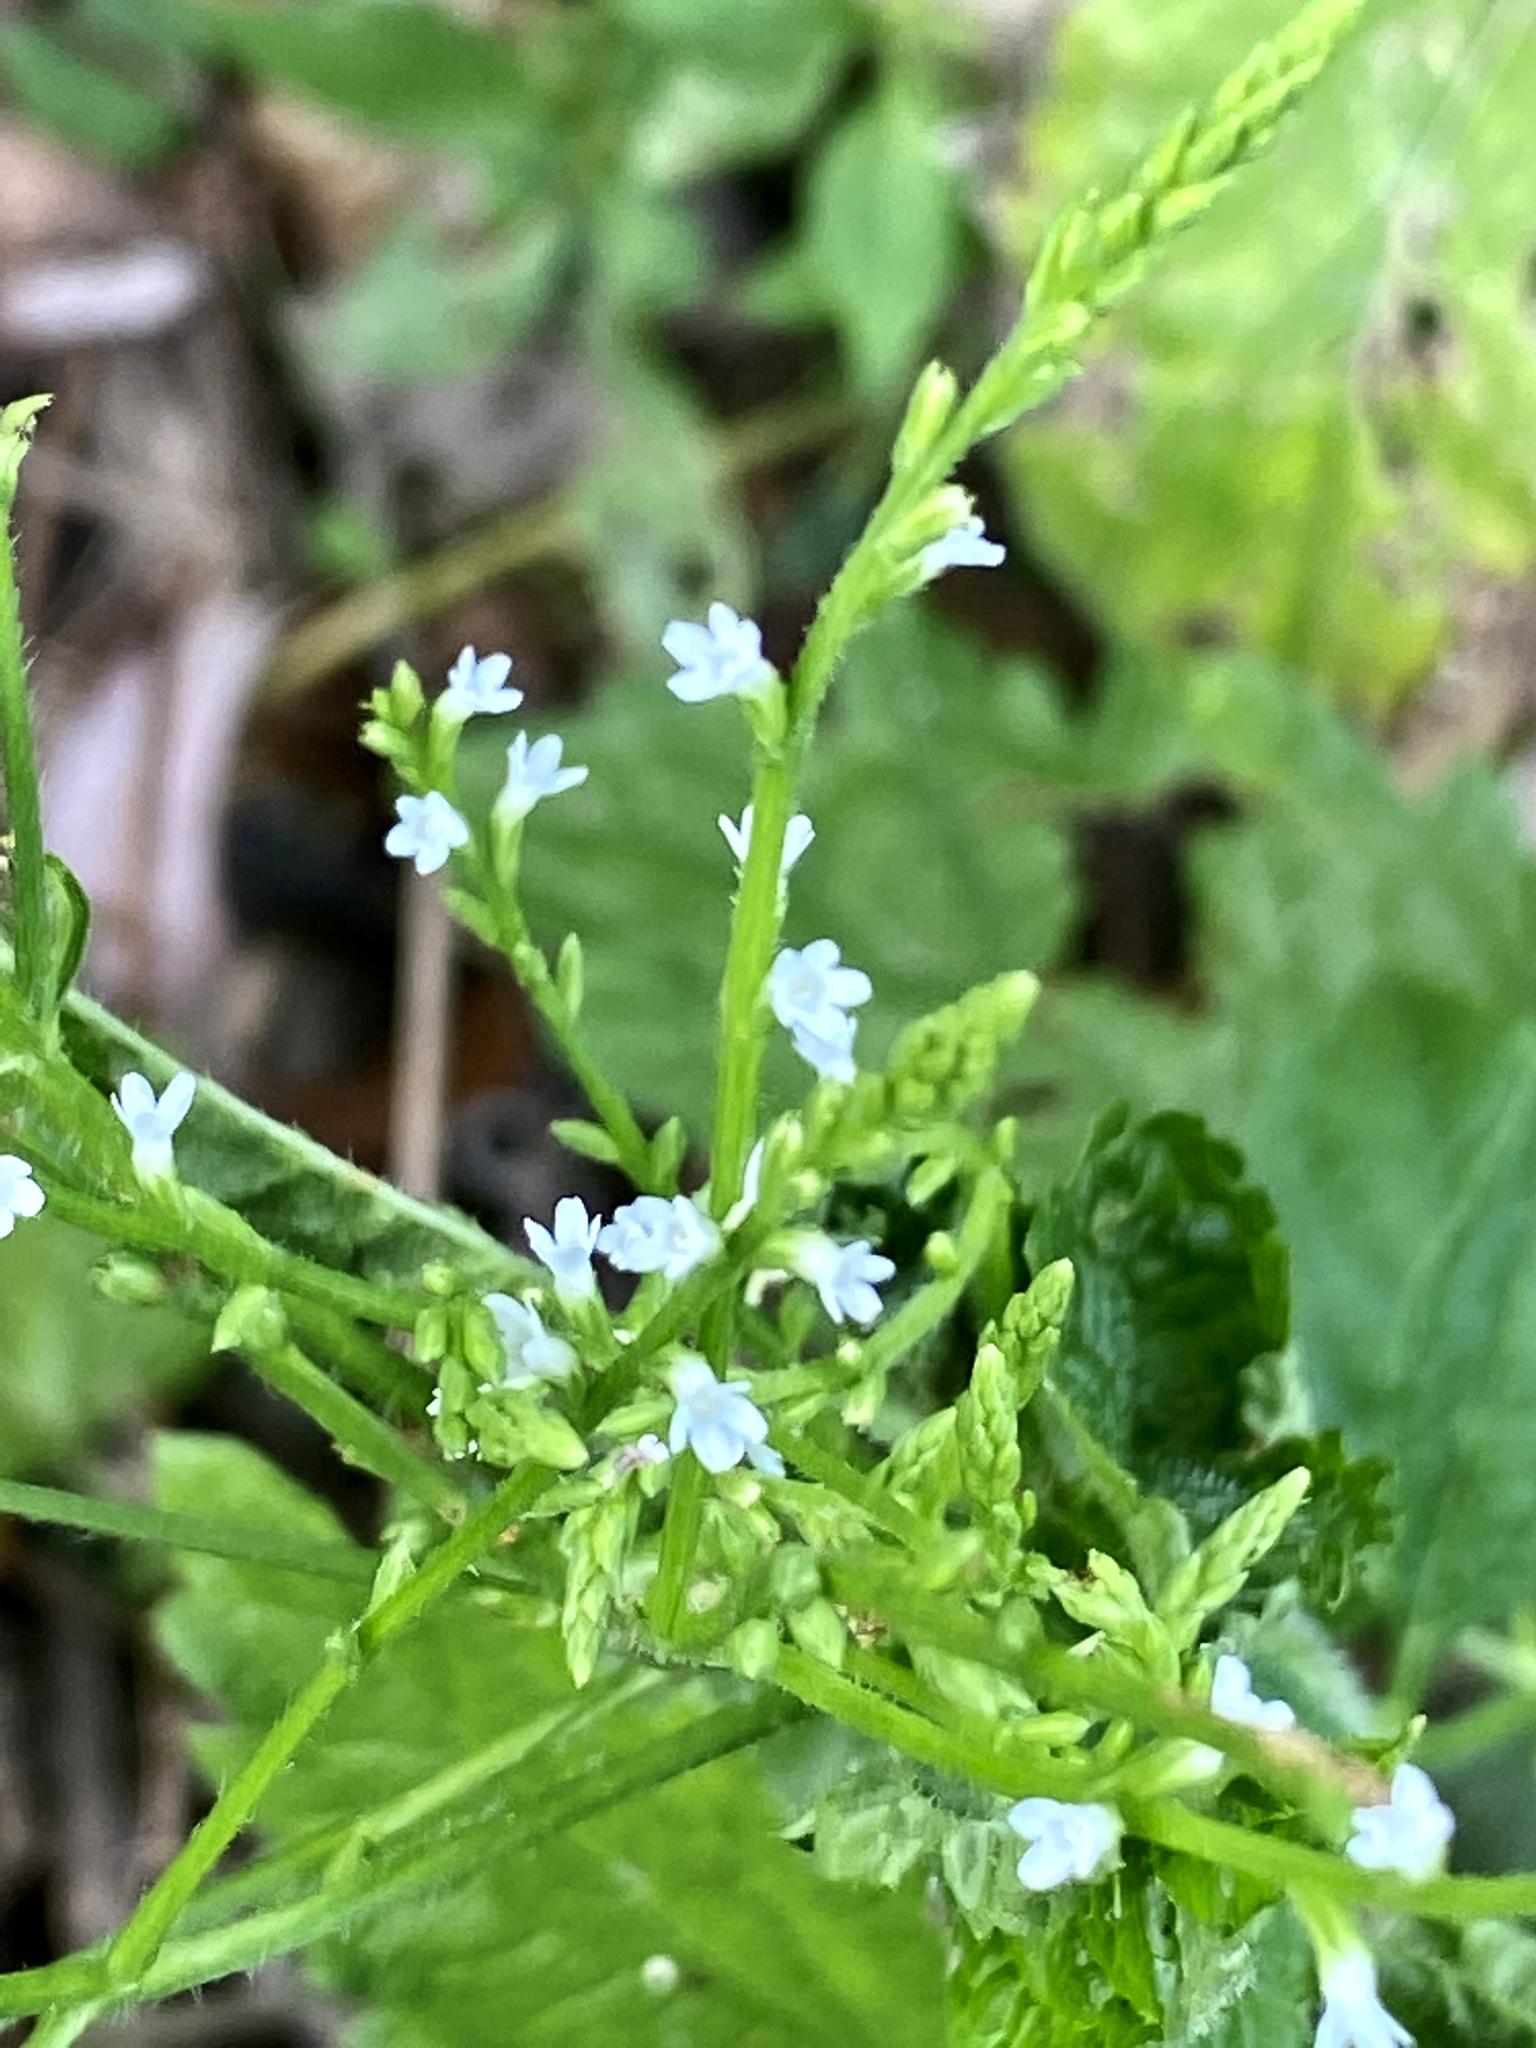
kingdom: Plantae
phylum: Tracheophyta
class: Magnoliopsida
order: Lamiales
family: Verbenaceae
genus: Verbena
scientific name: Verbena urticifolia
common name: Nettle-leaved vervain
